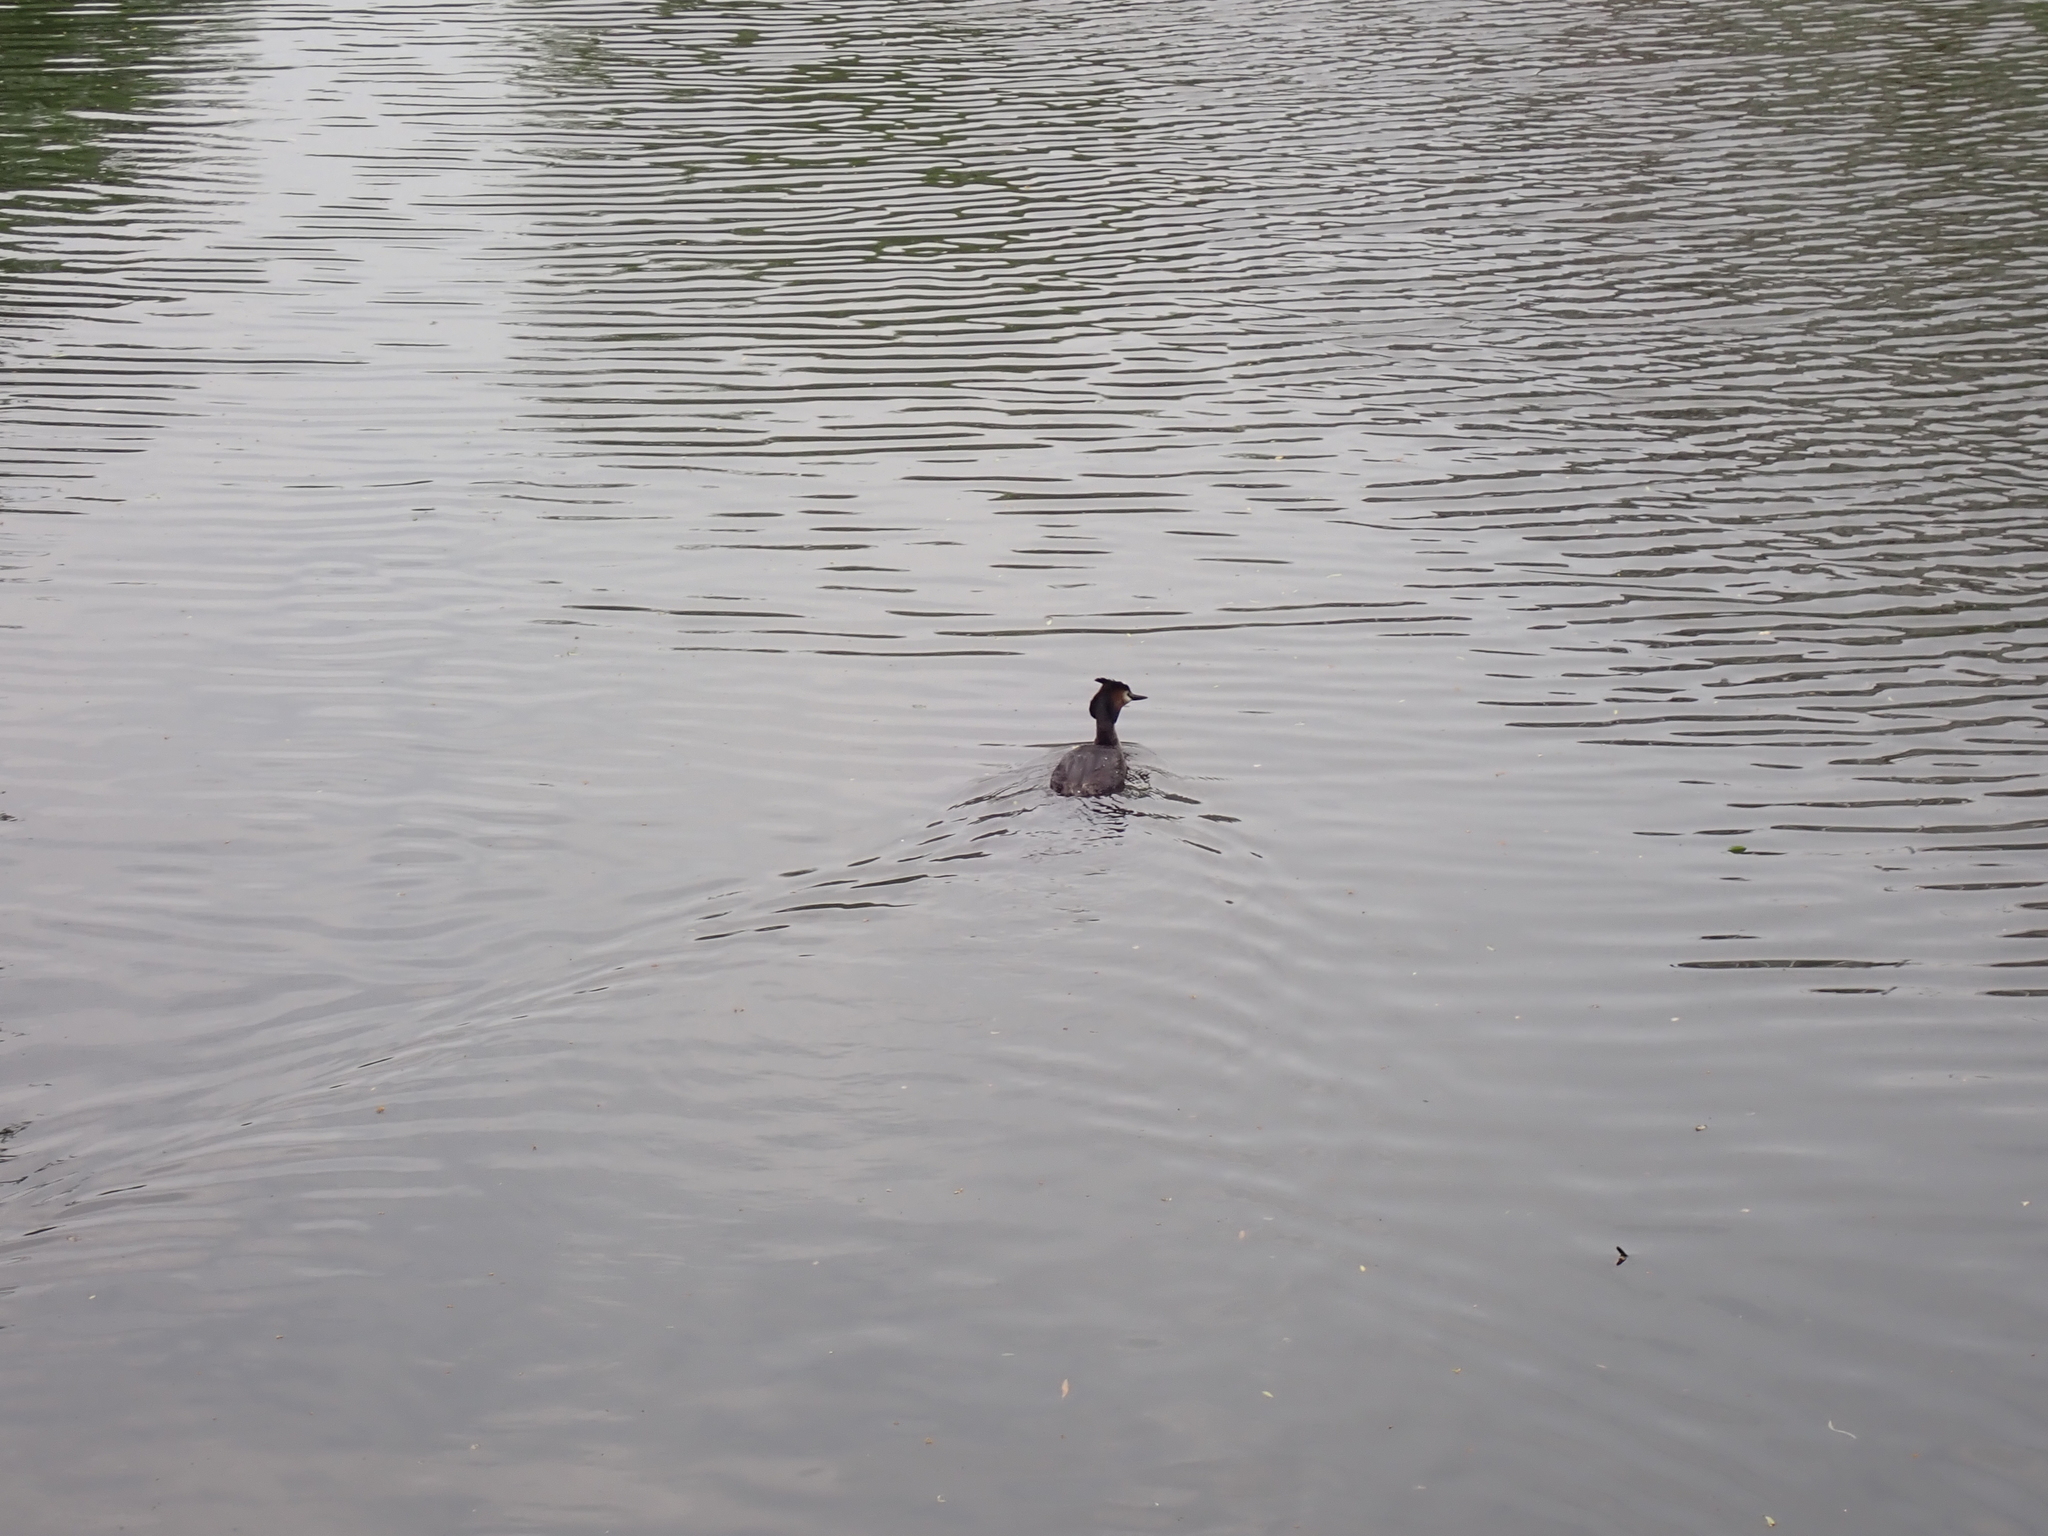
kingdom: Animalia
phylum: Chordata
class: Aves
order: Podicipediformes
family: Podicipedidae
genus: Podiceps
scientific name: Podiceps cristatus
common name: Great crested grebe
